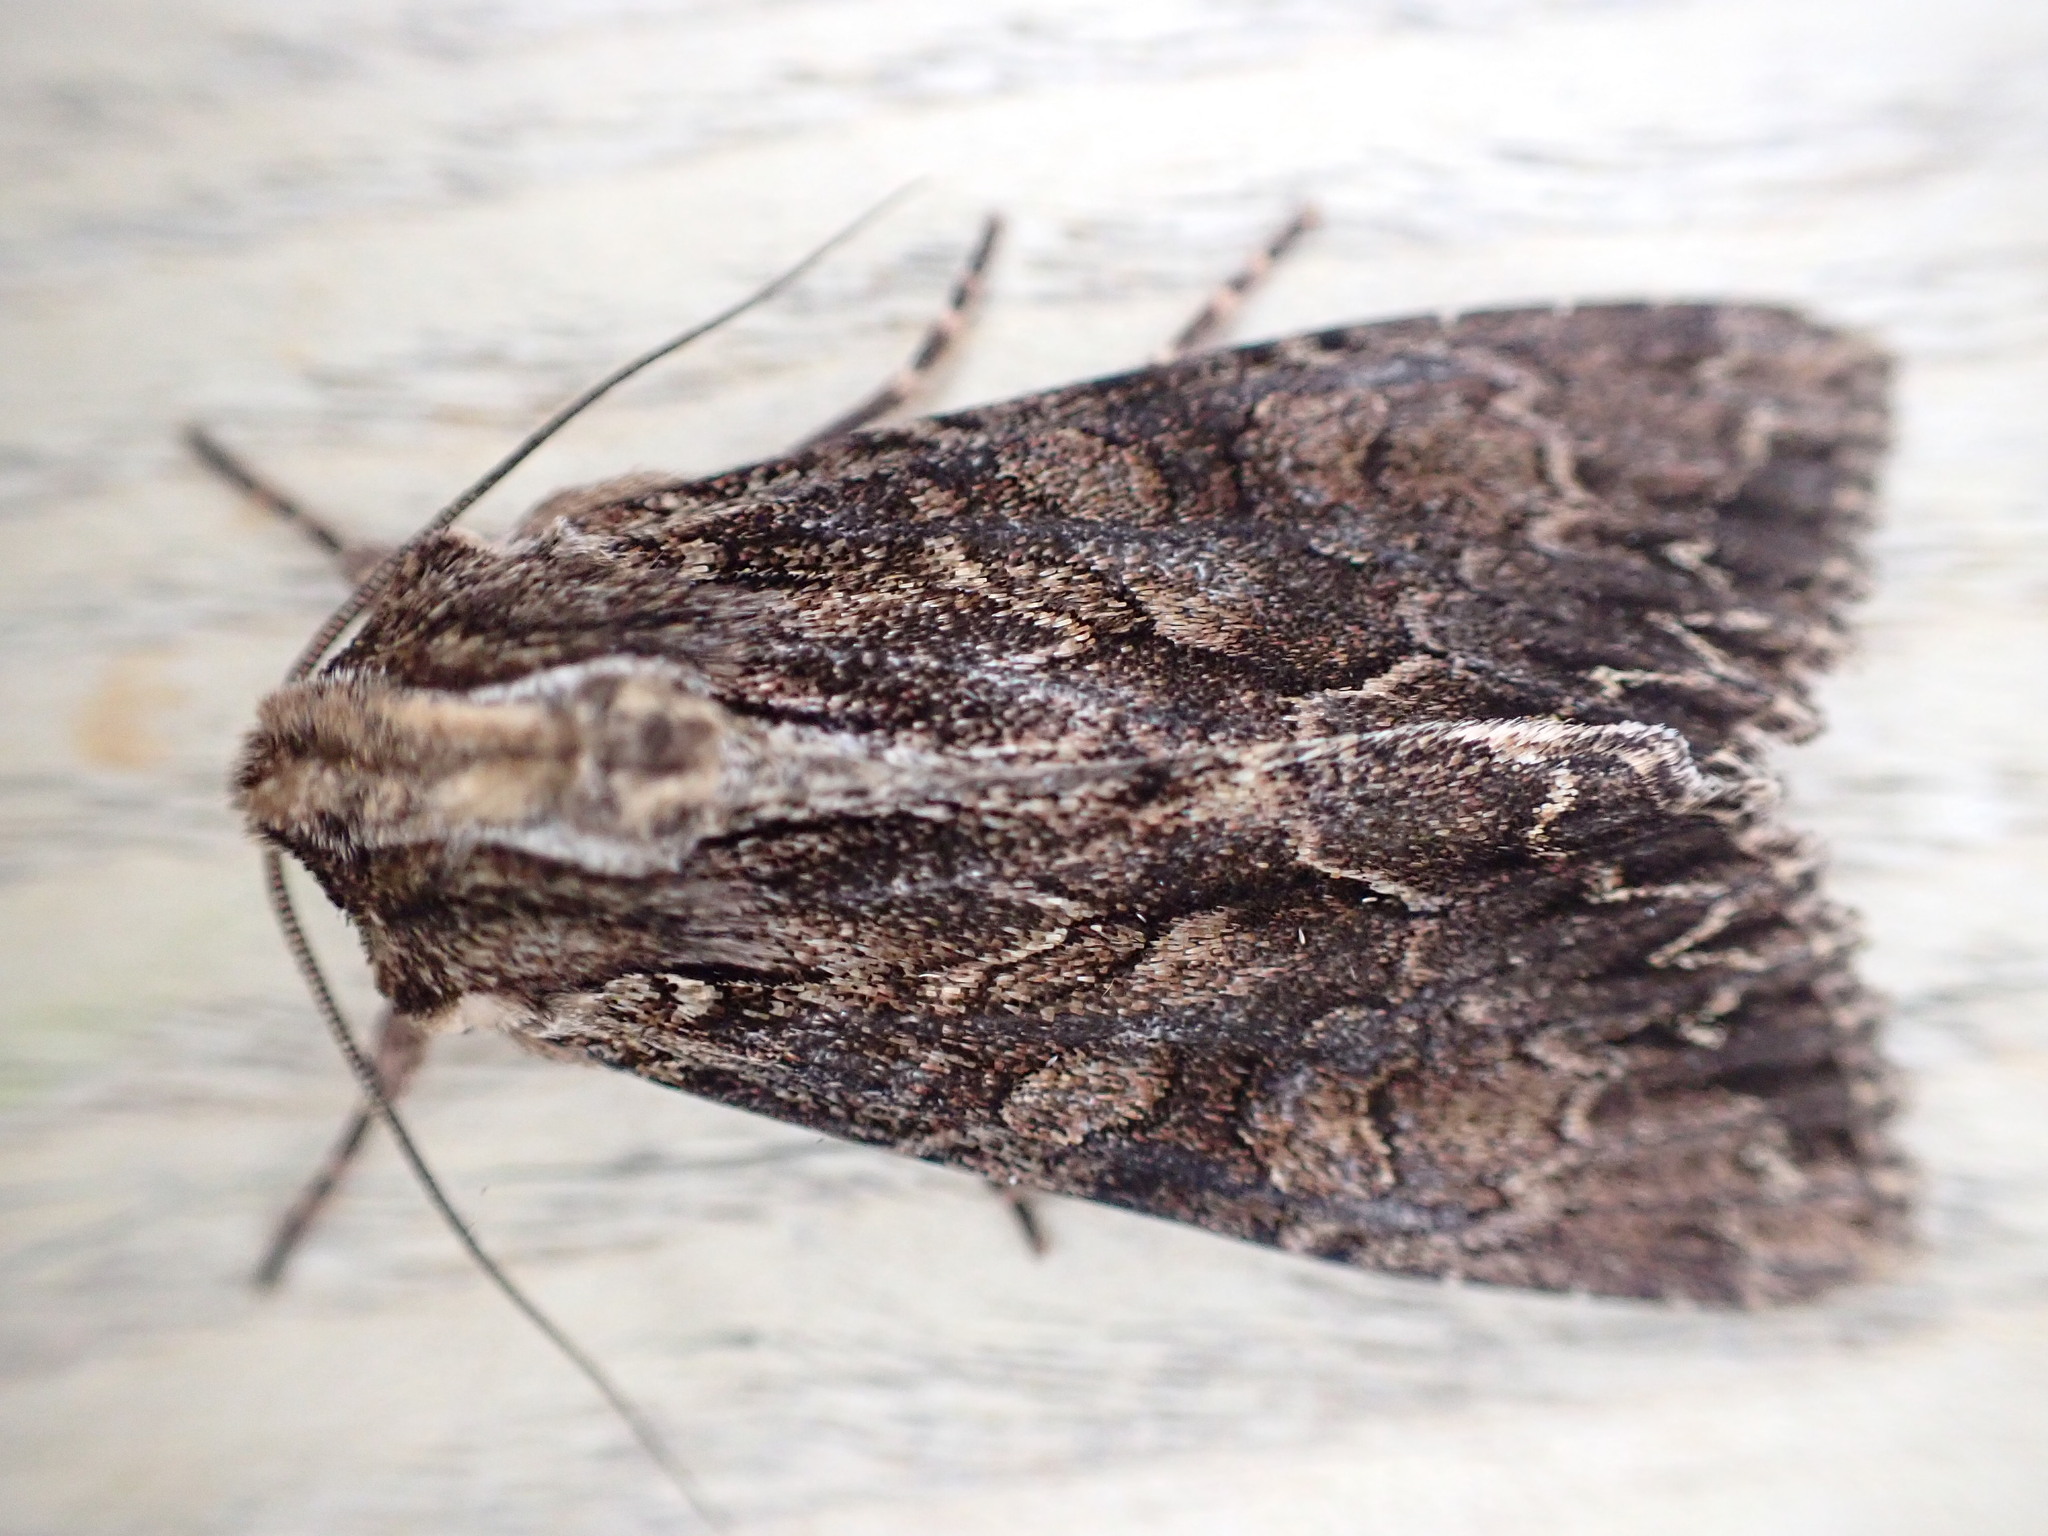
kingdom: Animalia
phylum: Arthropoda
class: Insecta
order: Lepidoptera
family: Noctuidae
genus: Apamea
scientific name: Apamea monoglypha
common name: Dark arches
